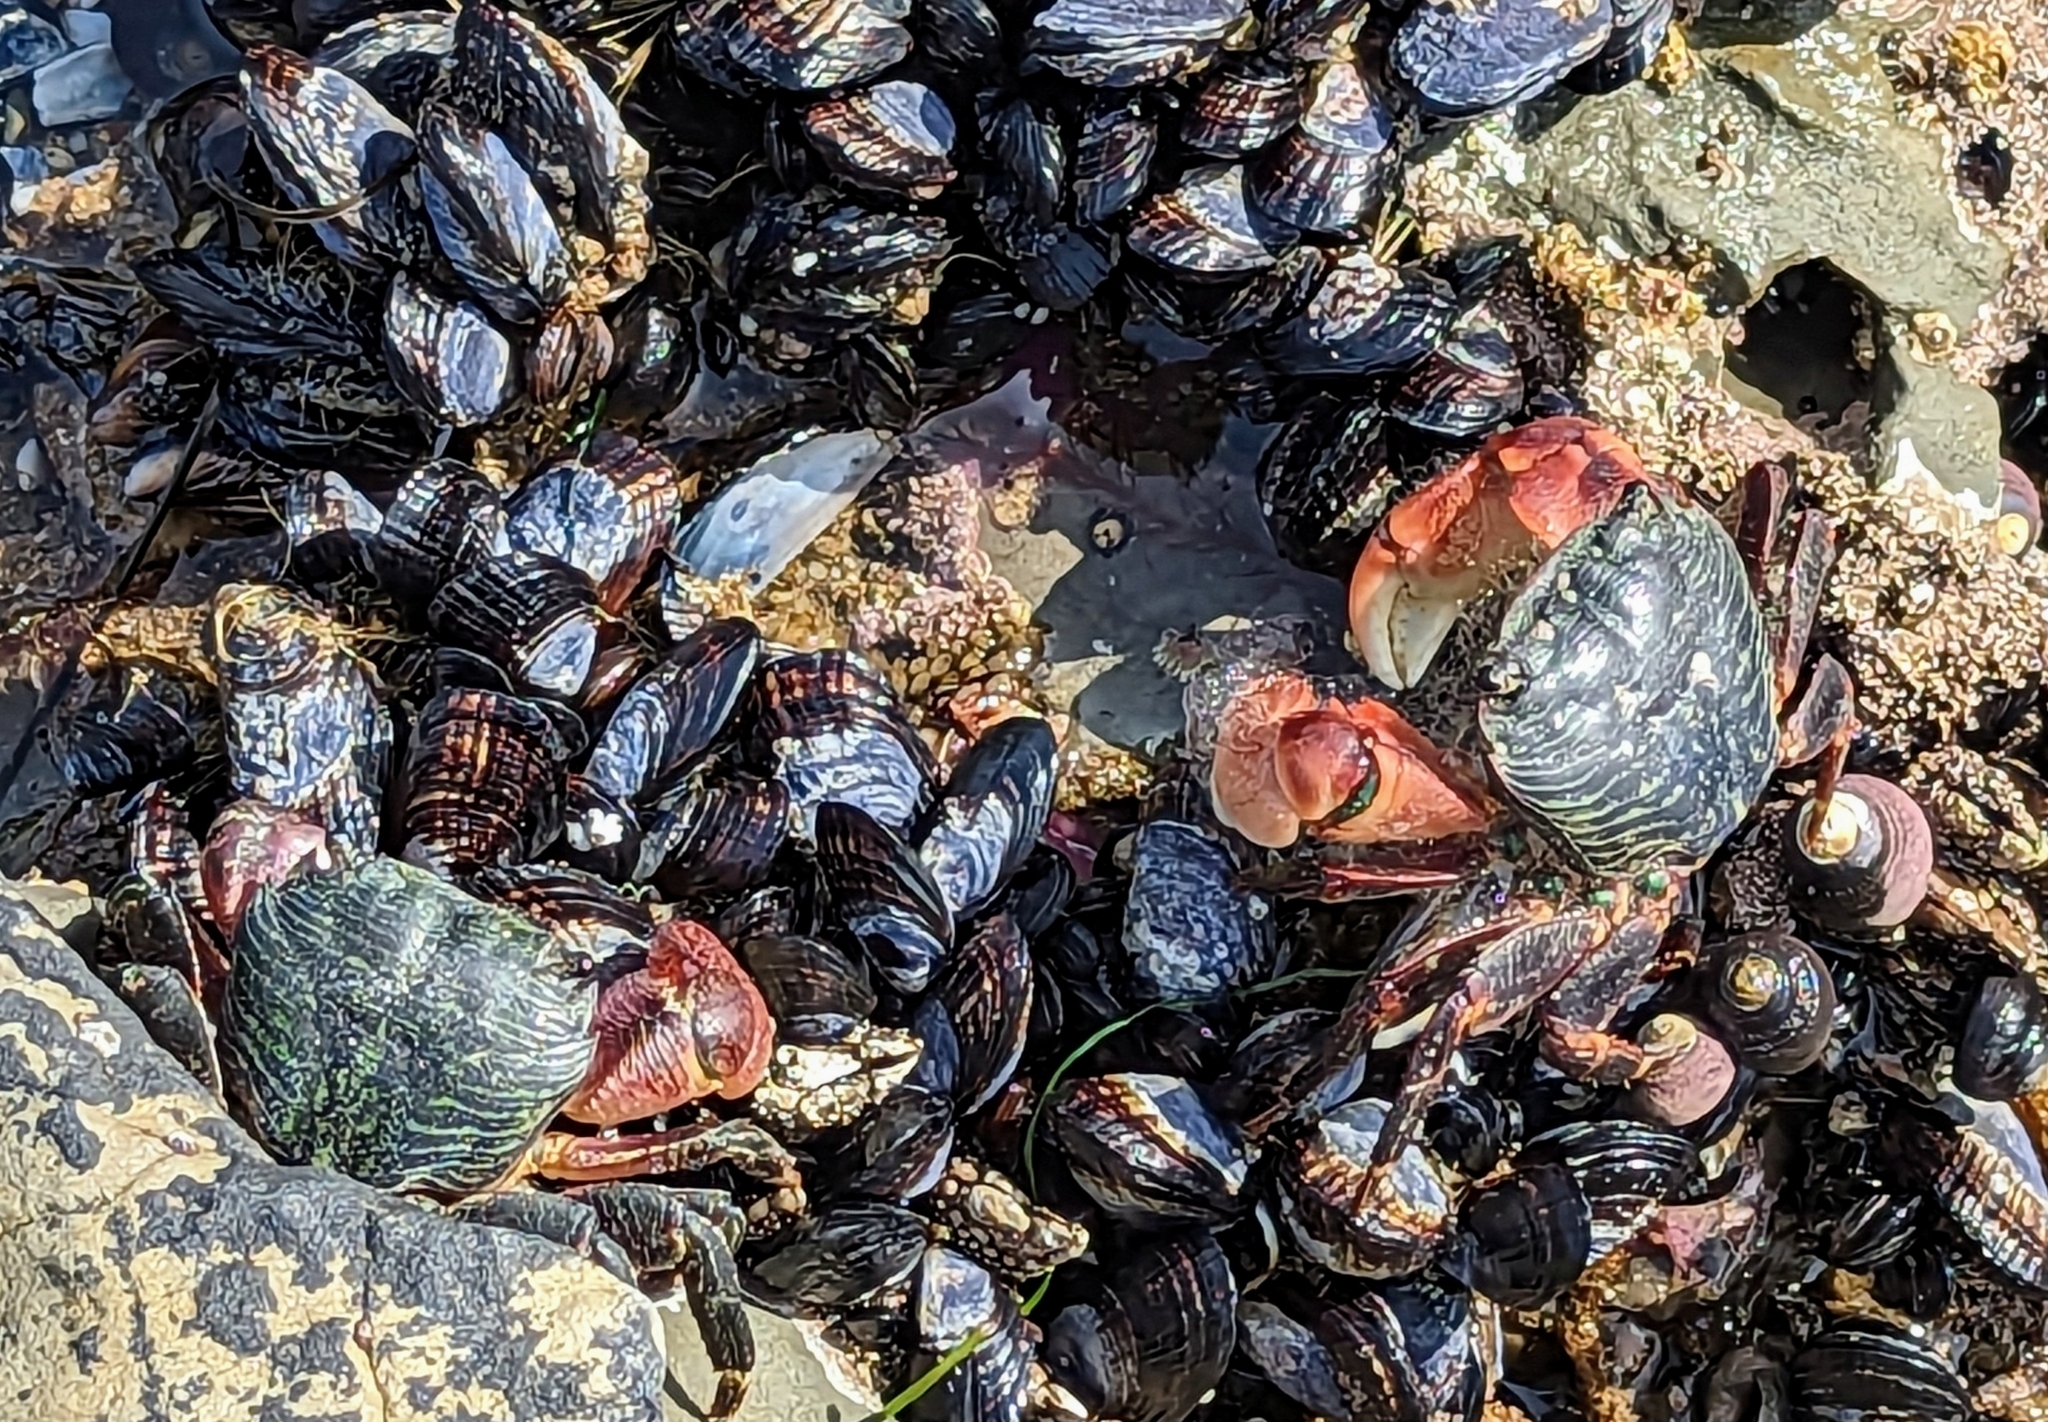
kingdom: Animalia
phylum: Arthropoda
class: Malacostraca
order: Decapoda
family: Grapsidae
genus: Pachygrapsus
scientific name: Pachygrapsus crassipes
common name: Striped shore crab
